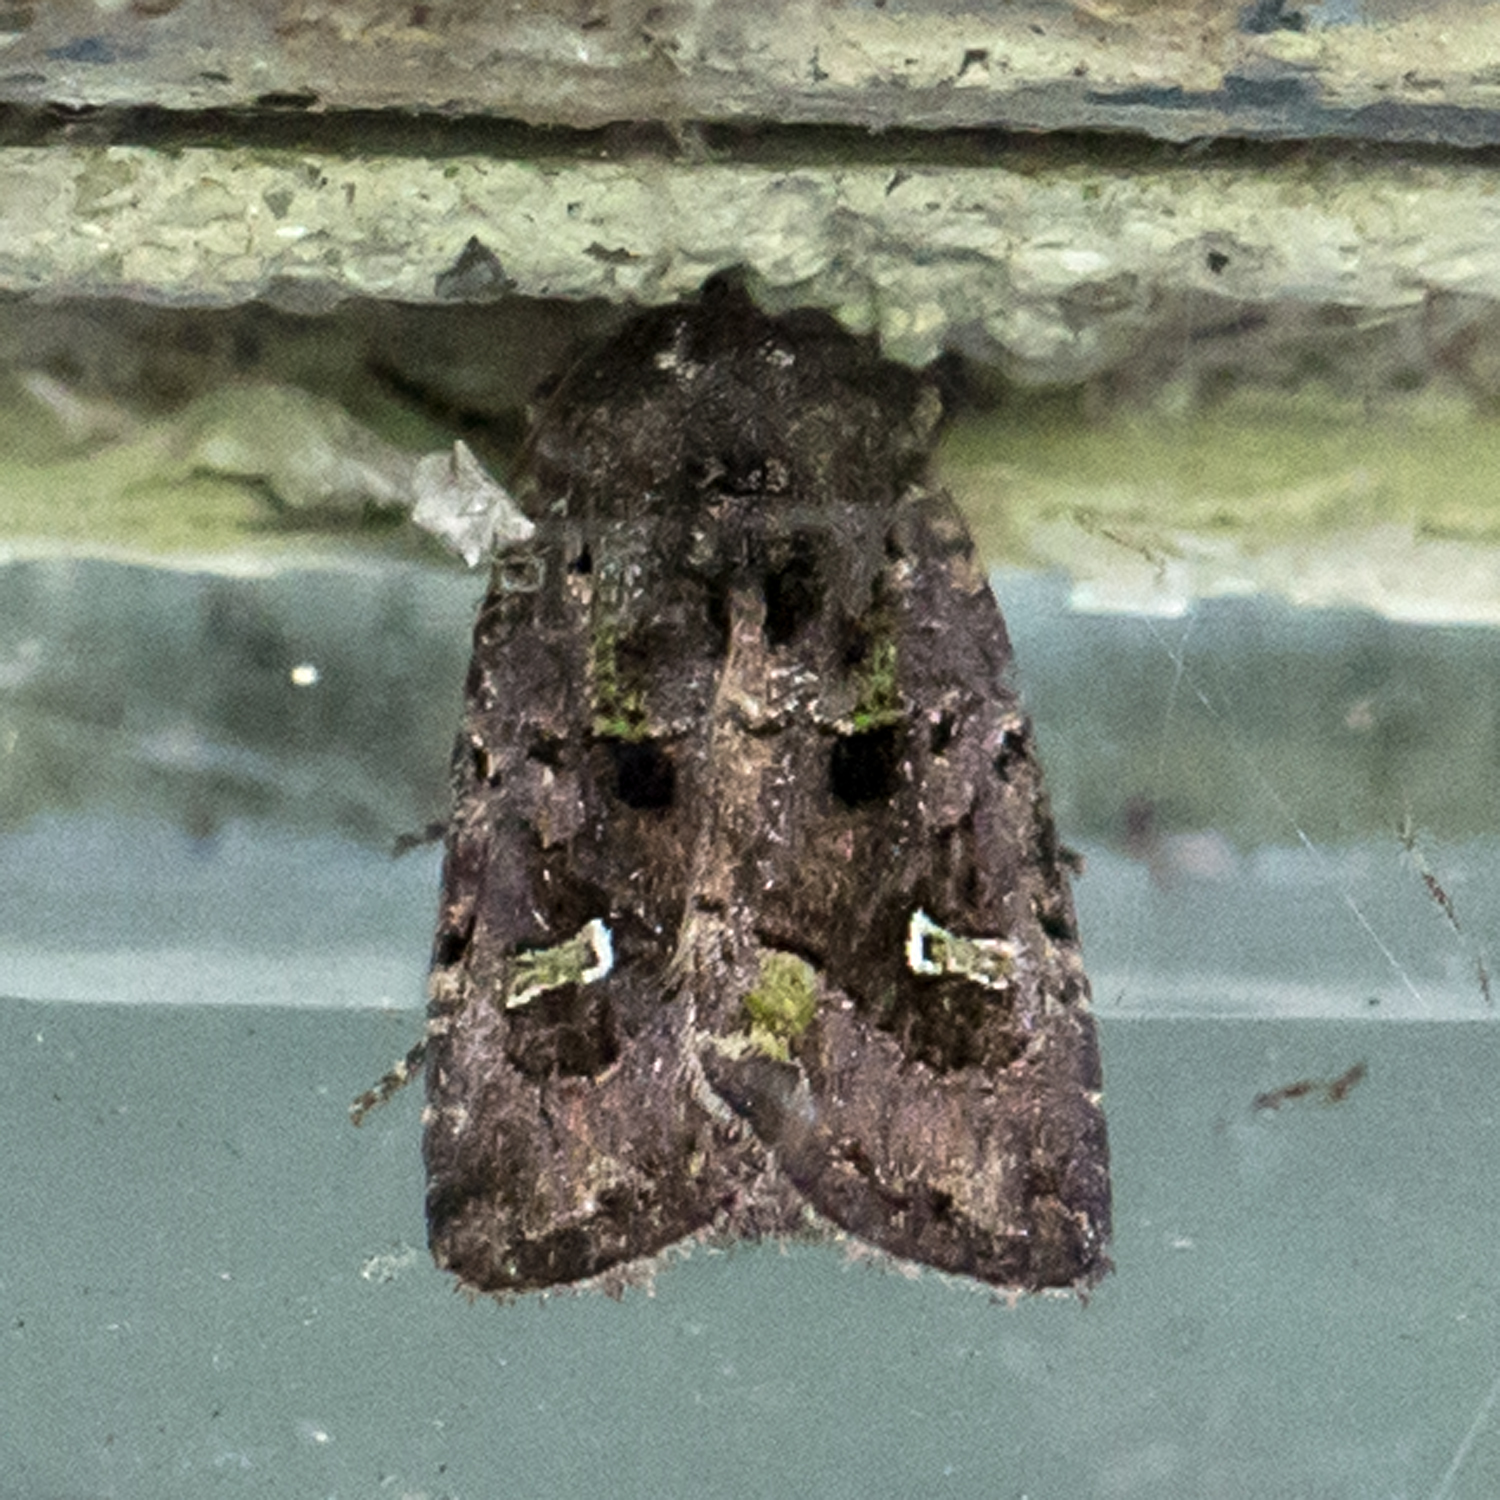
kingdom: Animalia
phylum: Arthropoda
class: Insecta
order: Lepidoptera
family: Noctuidae
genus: Lacinipolia
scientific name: Lacinipolia renigera
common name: Kidney-spotted minor
